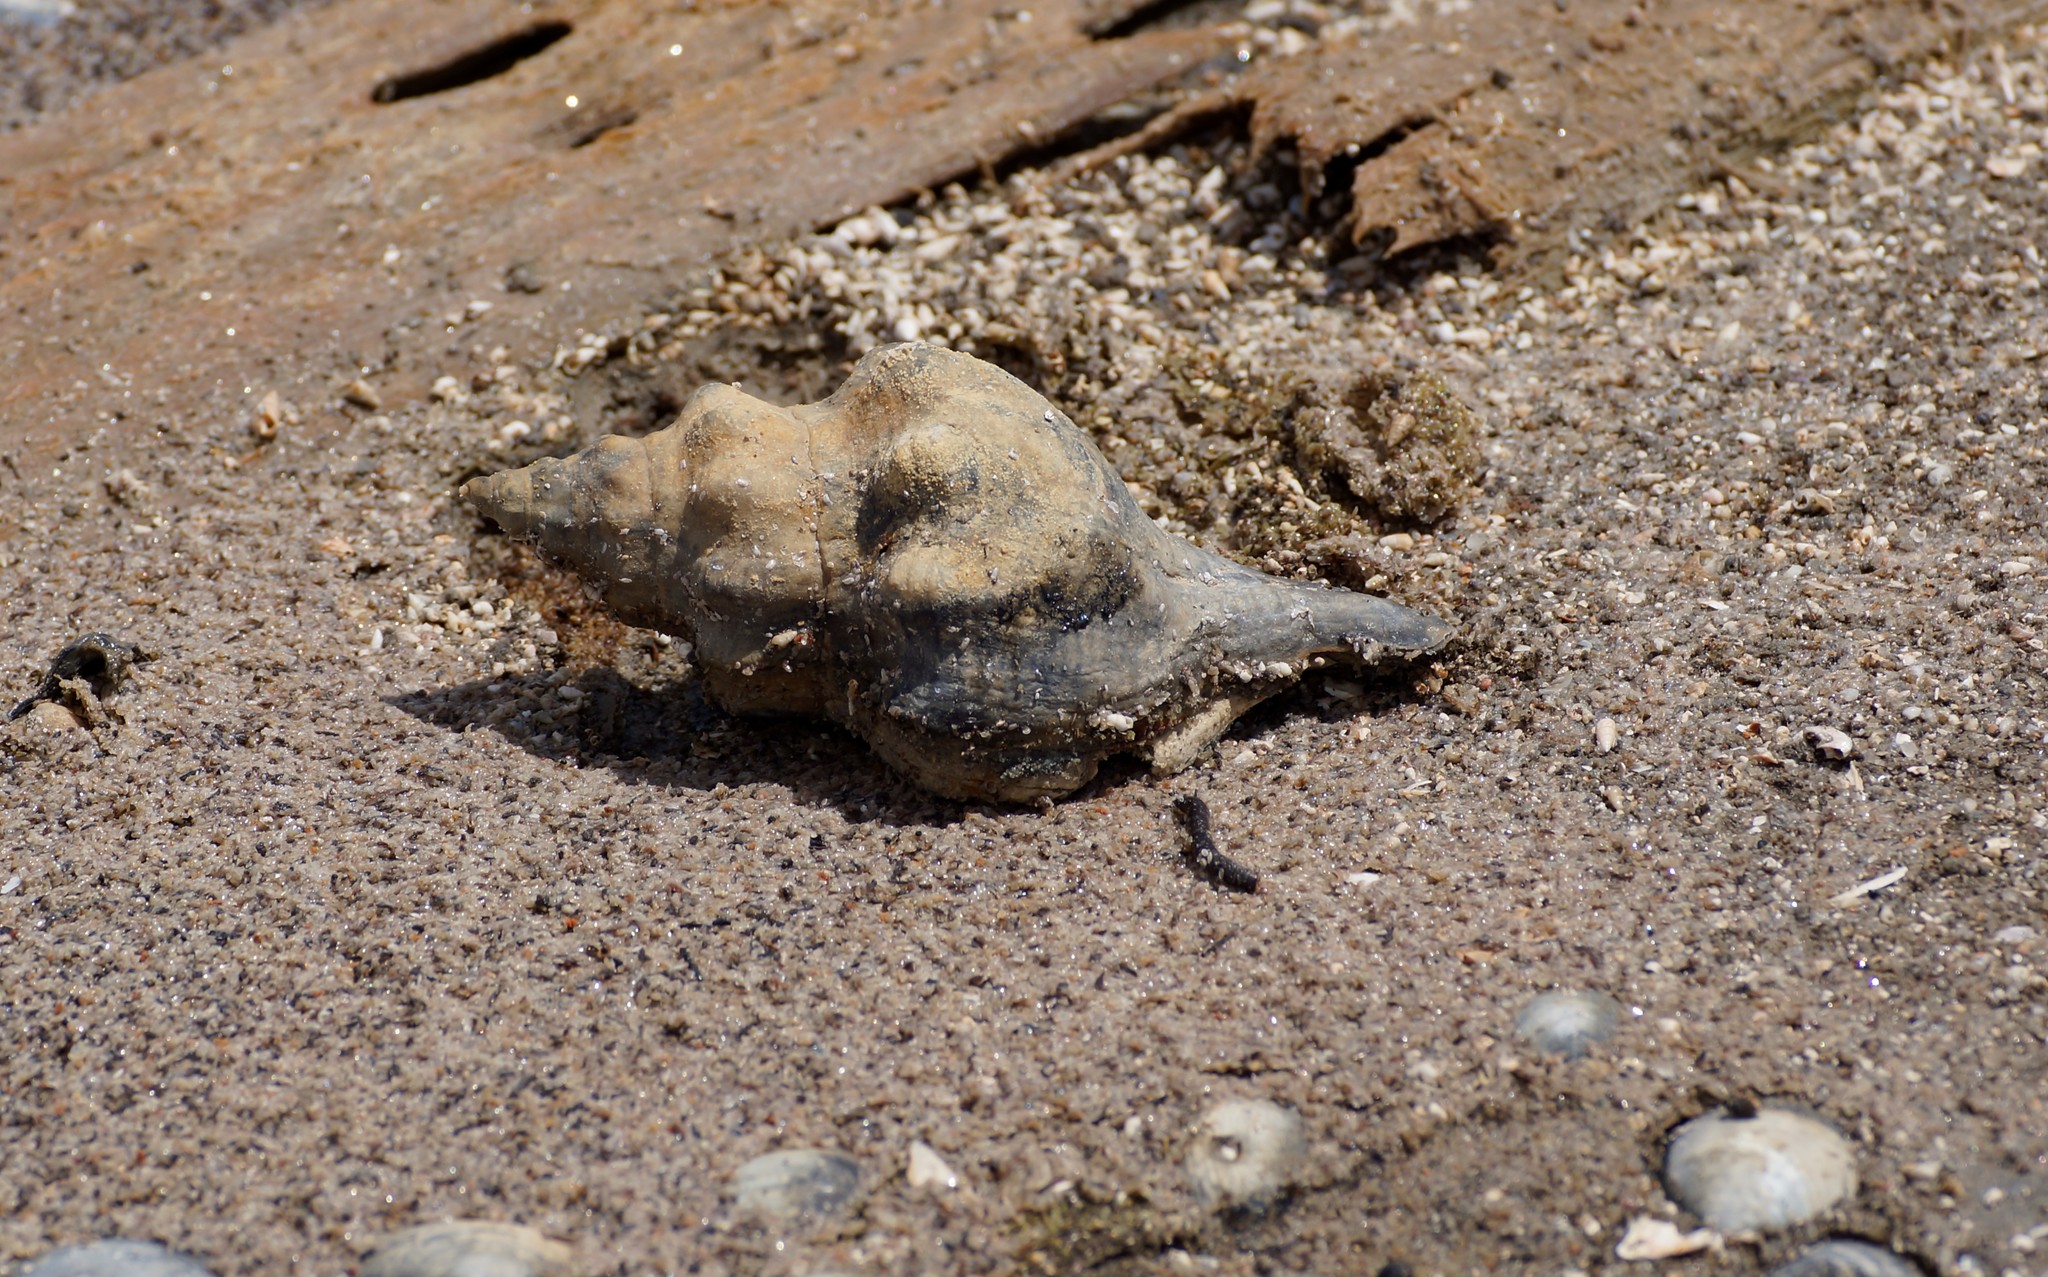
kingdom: Animalia
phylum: Mollusca
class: Gastropoda
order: Neogastropoda
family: Fasciolariidae
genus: Australaria
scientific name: Australaria australasia
